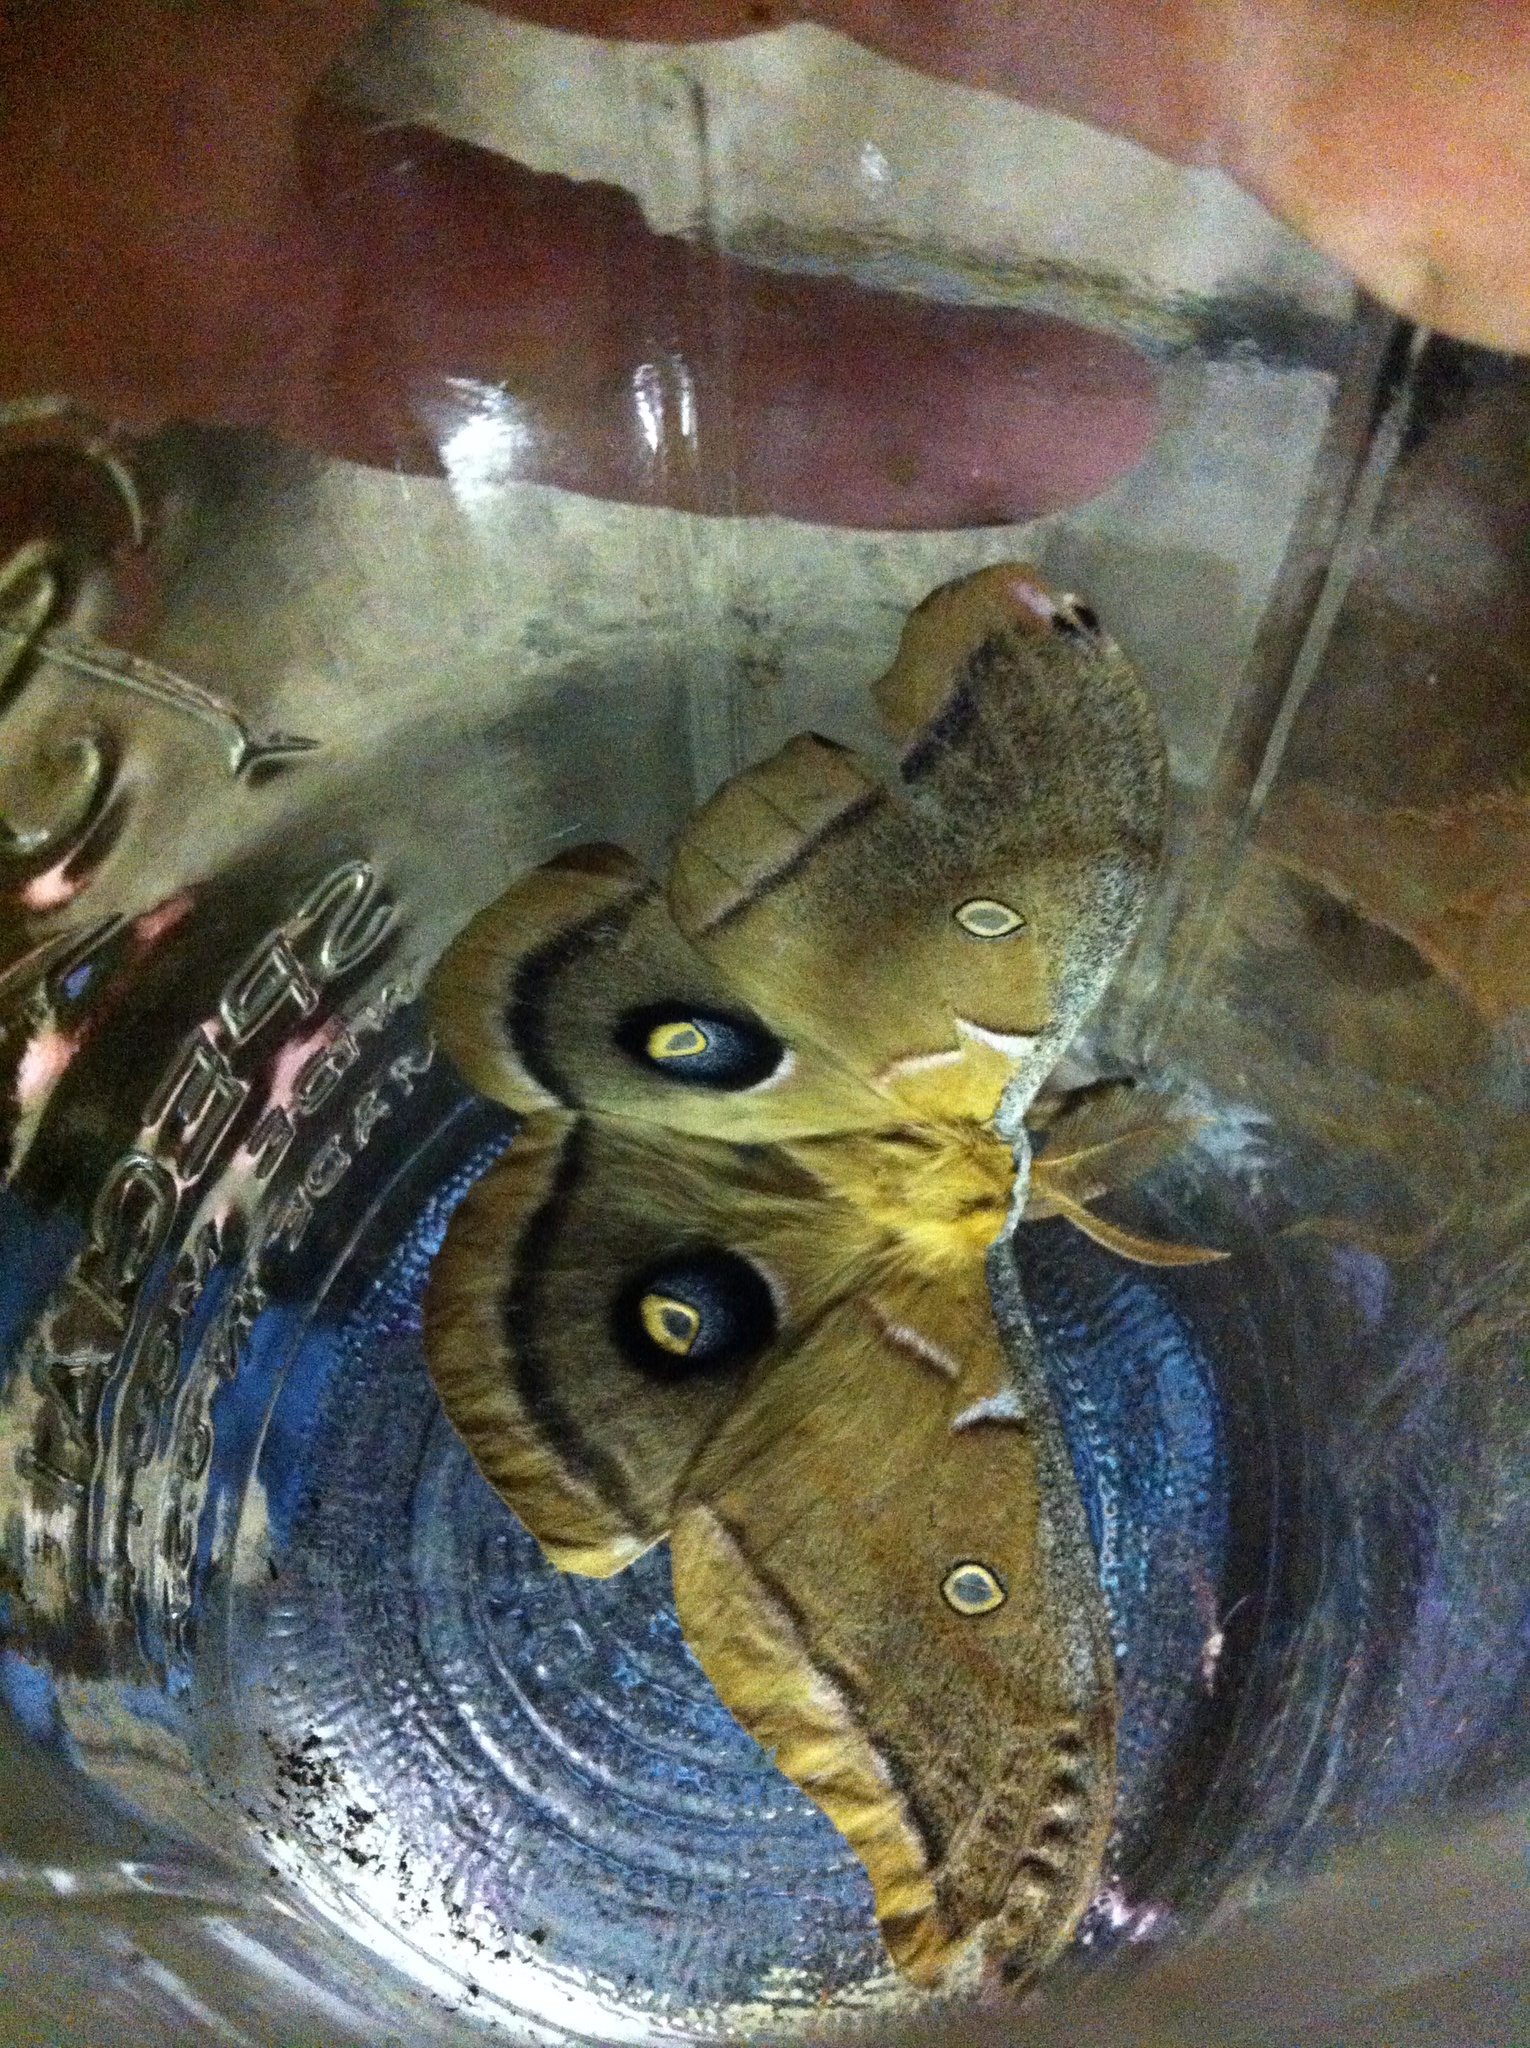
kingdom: Animalia
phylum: Arthropoda
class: Insecta
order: Lepidoptera
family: Saturniidae
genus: Antheraea
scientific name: Antheraea polyphemus
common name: Polyphemus moth
